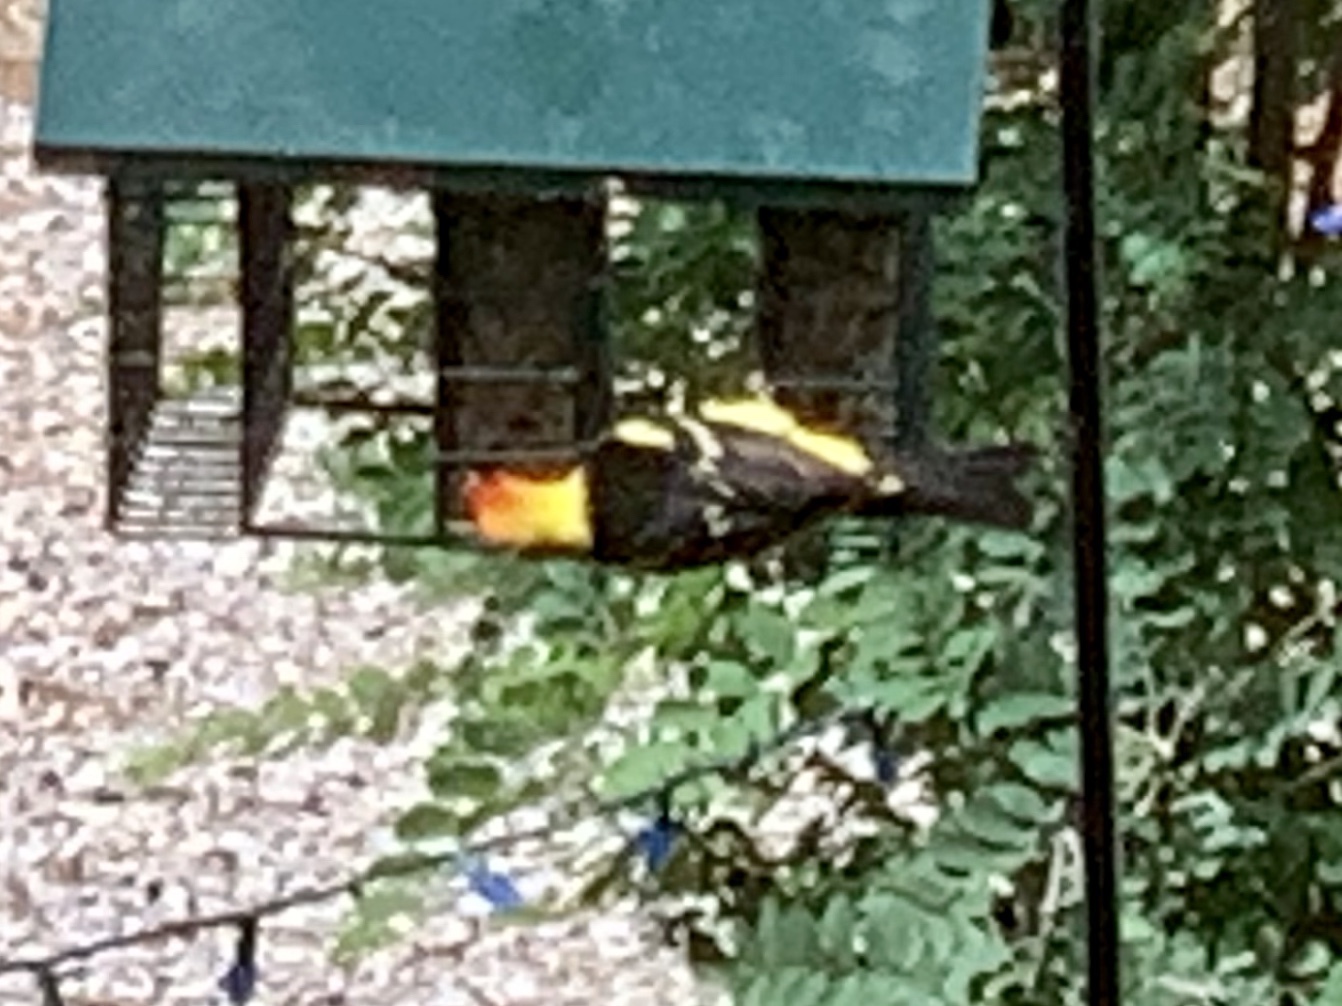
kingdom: Animalia
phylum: Chordata
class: Aves
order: Passeriformes
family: Cardinalidae
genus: Piranga
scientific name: Piranga ludoviciana
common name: Western tanager
